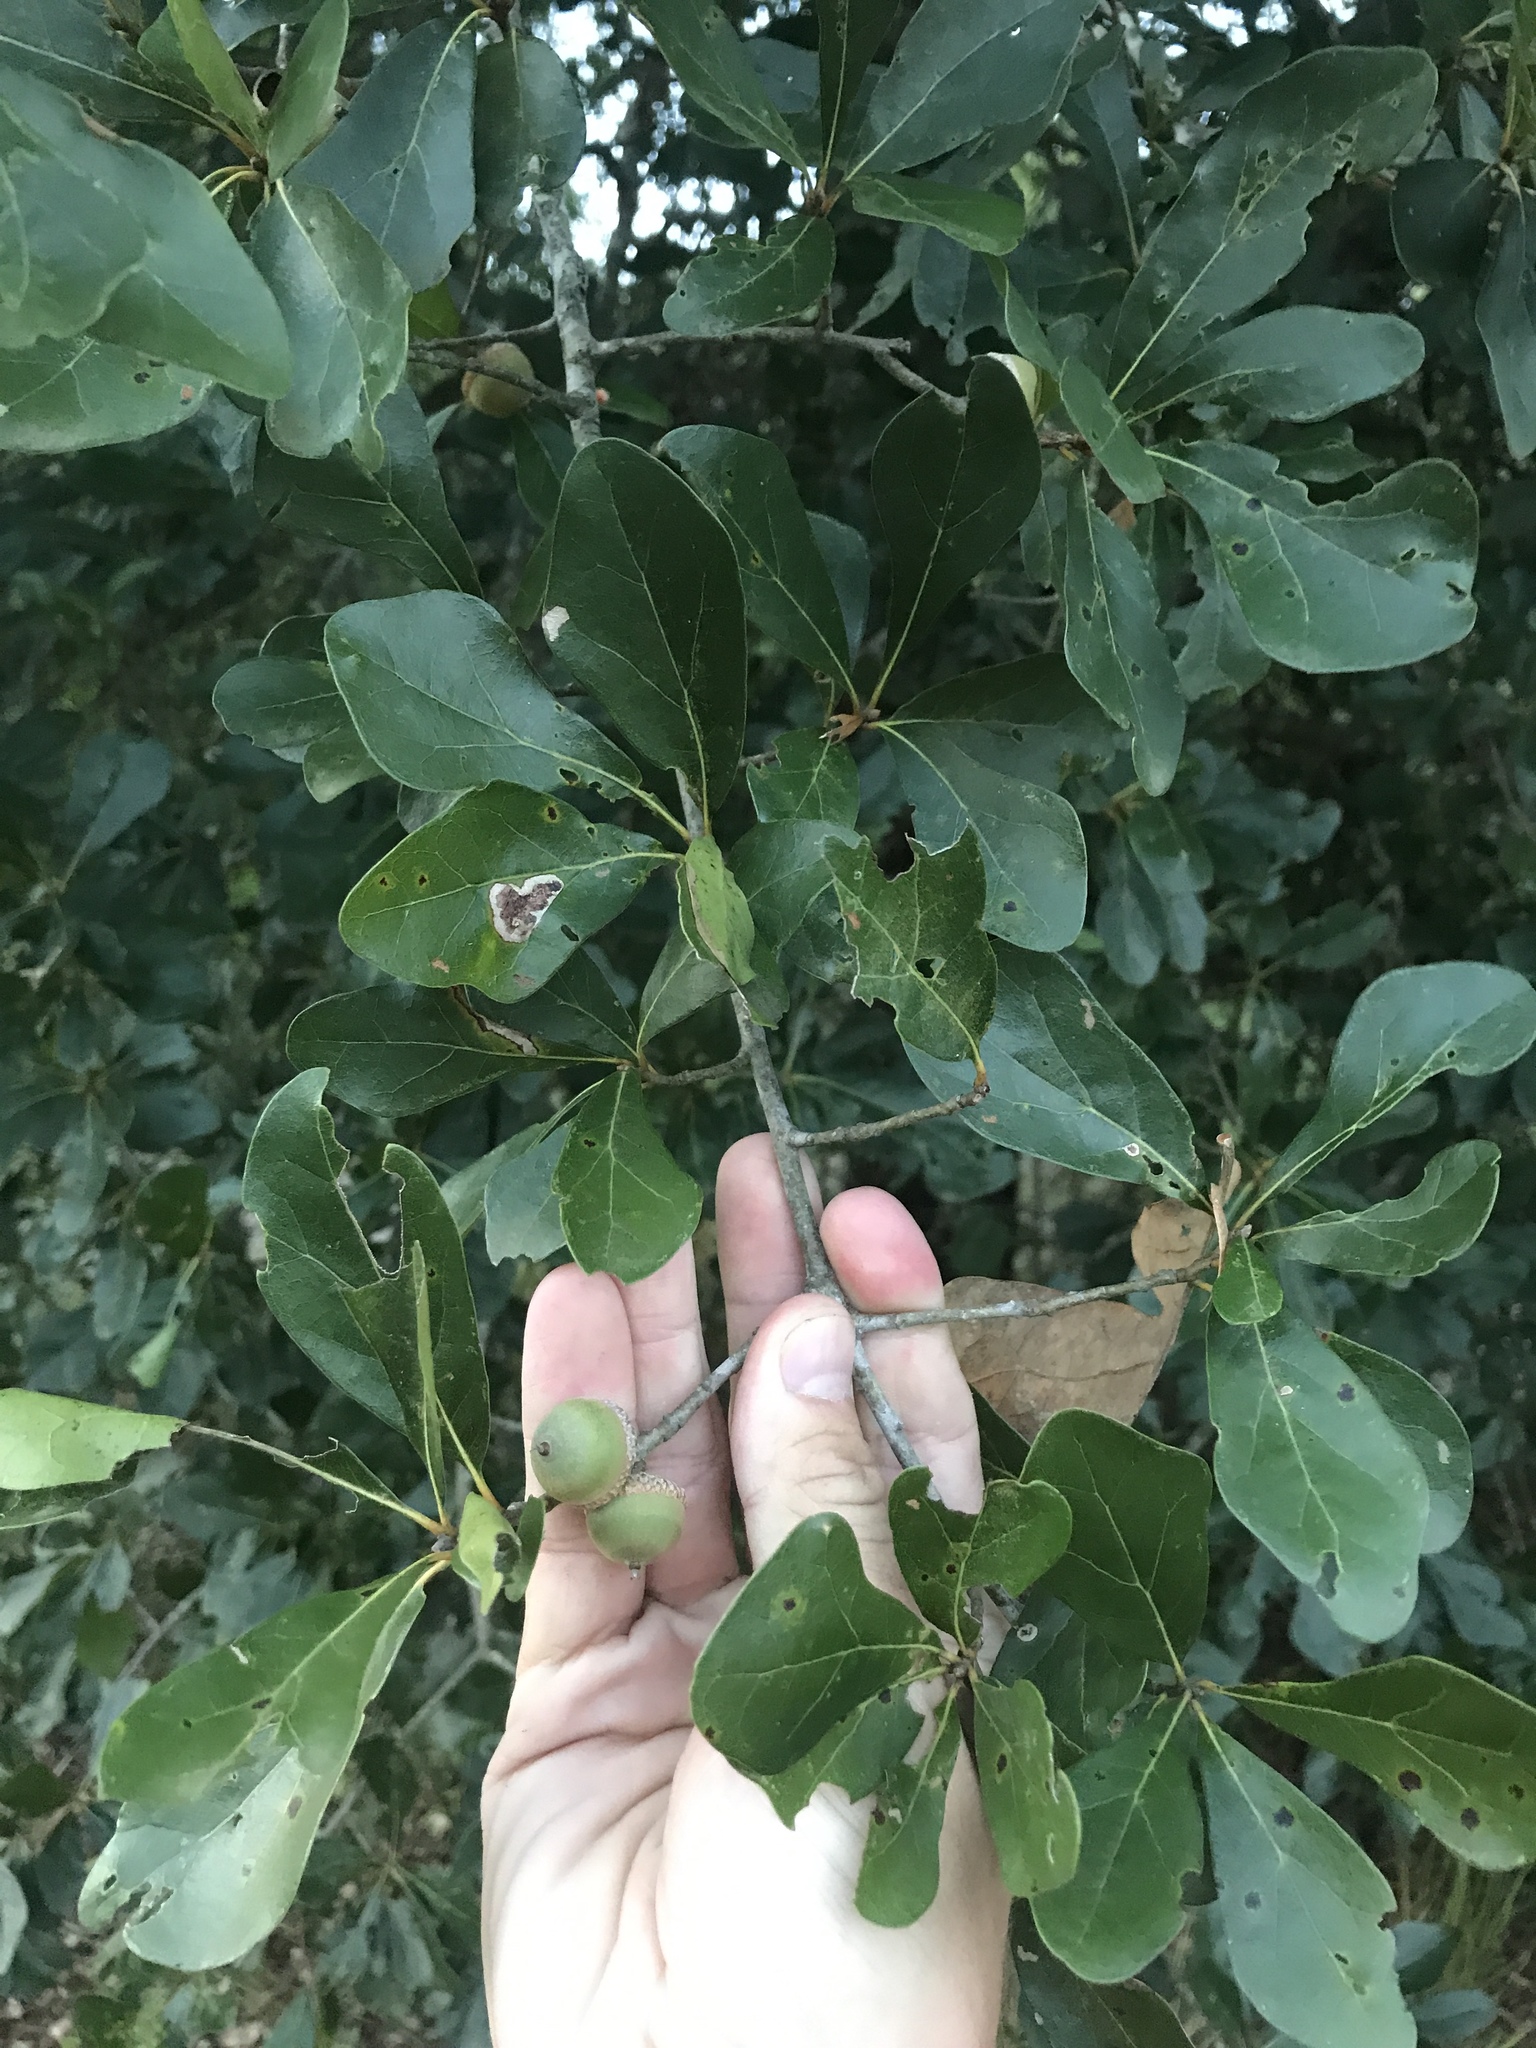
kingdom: Plantae
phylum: Tracheophyta
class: Magnoliopsida
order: Fagales
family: Fagaceae
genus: Quercus
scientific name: Quercus nigra
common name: Water oak
